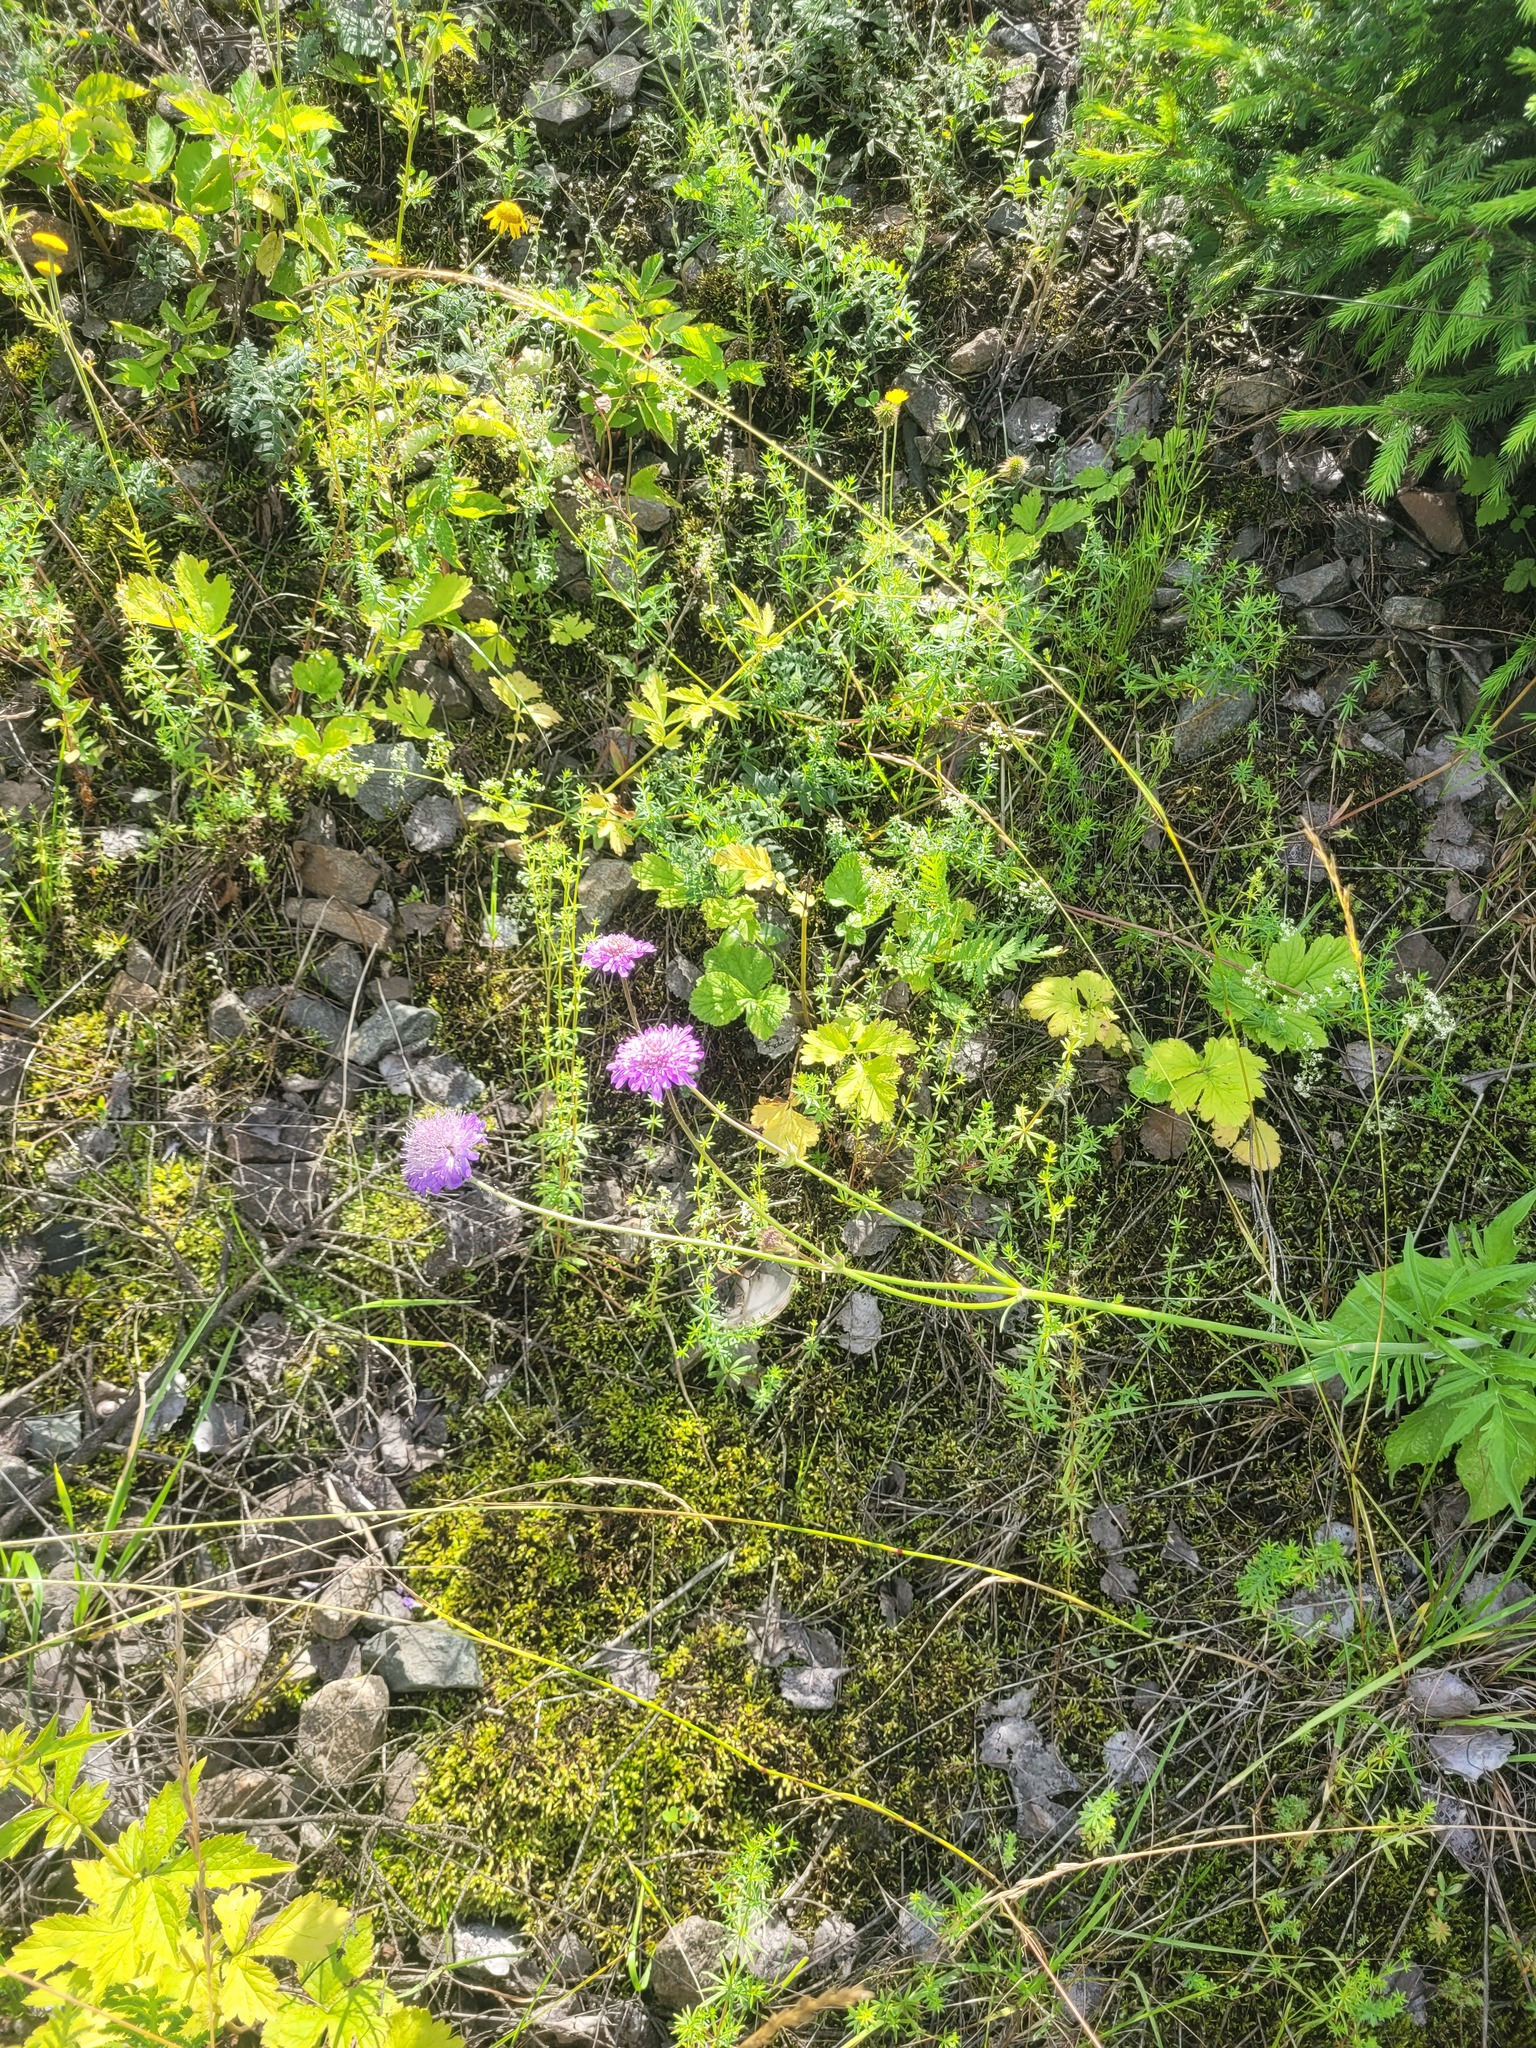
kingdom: Plantae
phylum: Tracheophyta
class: Magnoliopsida
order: Dipsacales
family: Caprifoliaceae
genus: Knautia
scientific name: Knautia arvensis
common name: Field scabiosa
